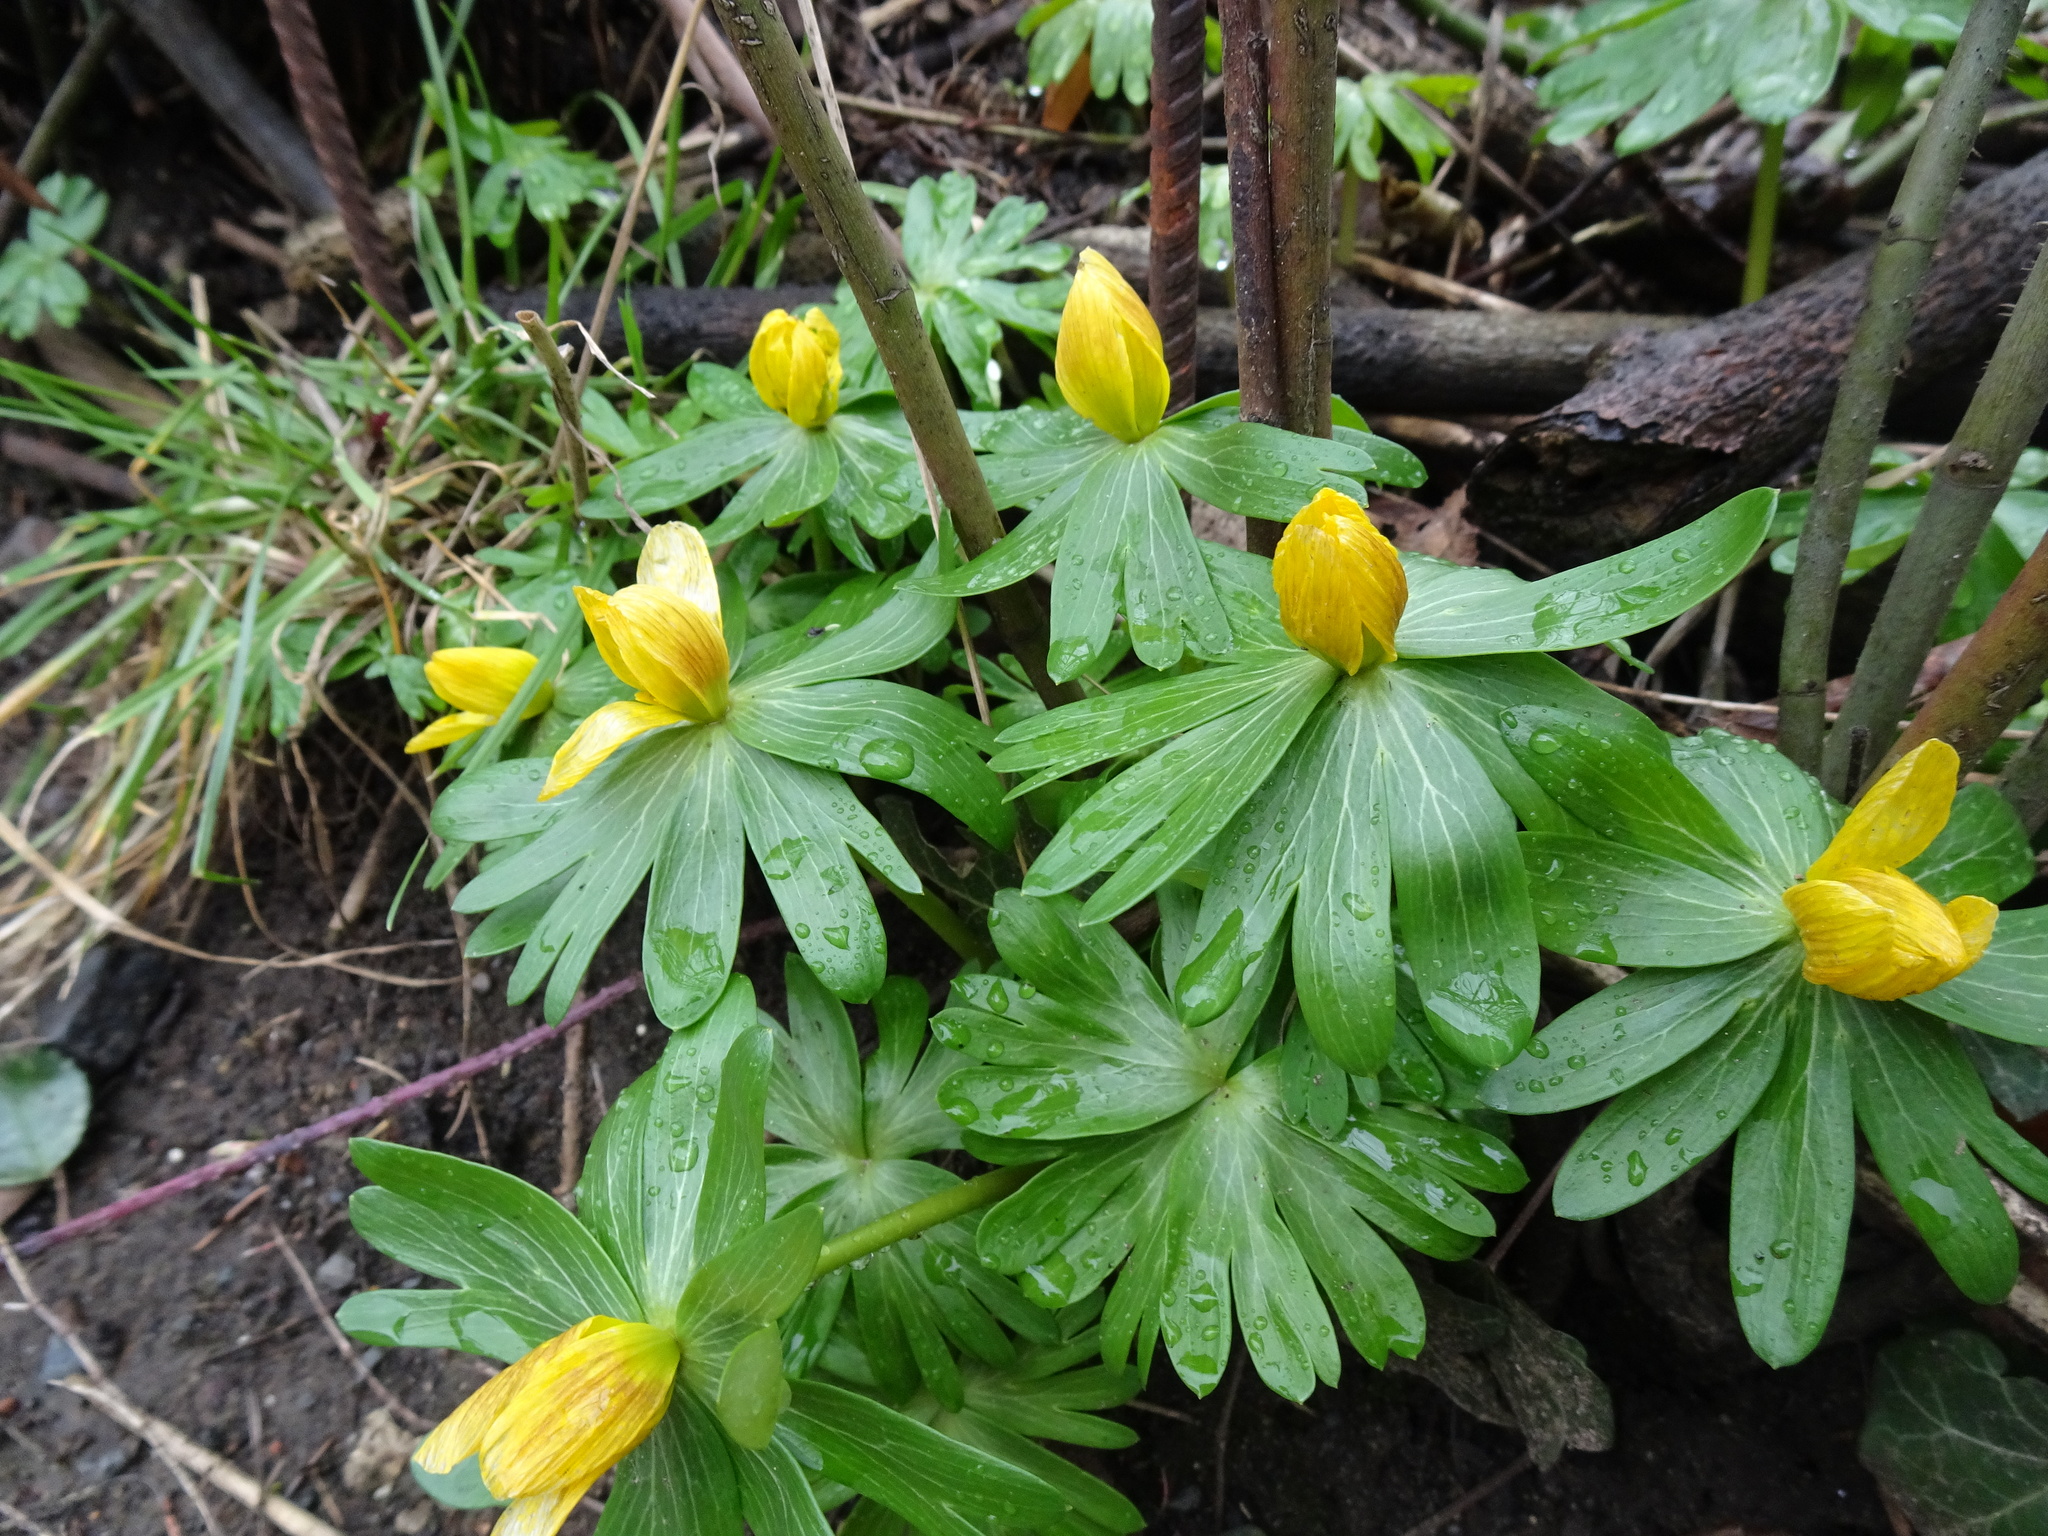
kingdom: Plantae
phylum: Tracheophyta
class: Magnoliopsida
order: Ranunculales
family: Ranunculaceae
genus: Eranthis
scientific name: Eranthis hyemalis
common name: Winter aconite
